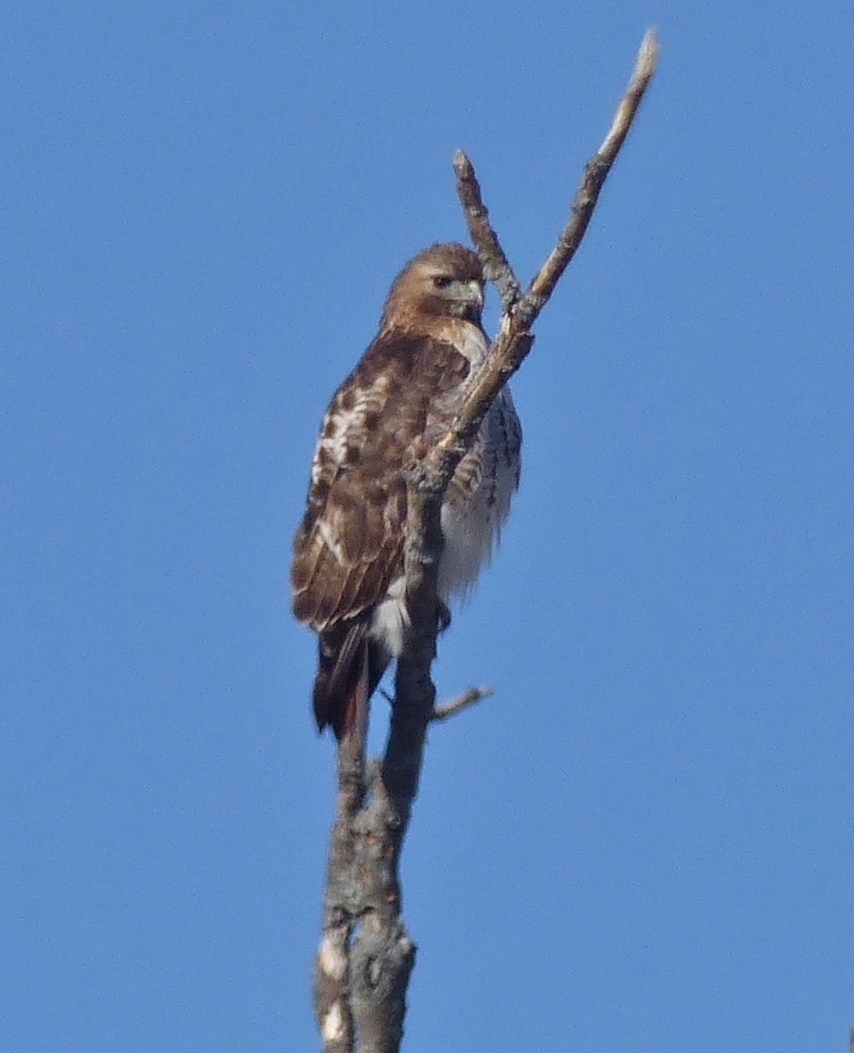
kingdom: Animalia
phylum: Chordata
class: Aves
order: Accipitriformes
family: Accipitridae
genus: Buteo
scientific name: Buteo jamaicensis
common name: Red-tailed hawk
